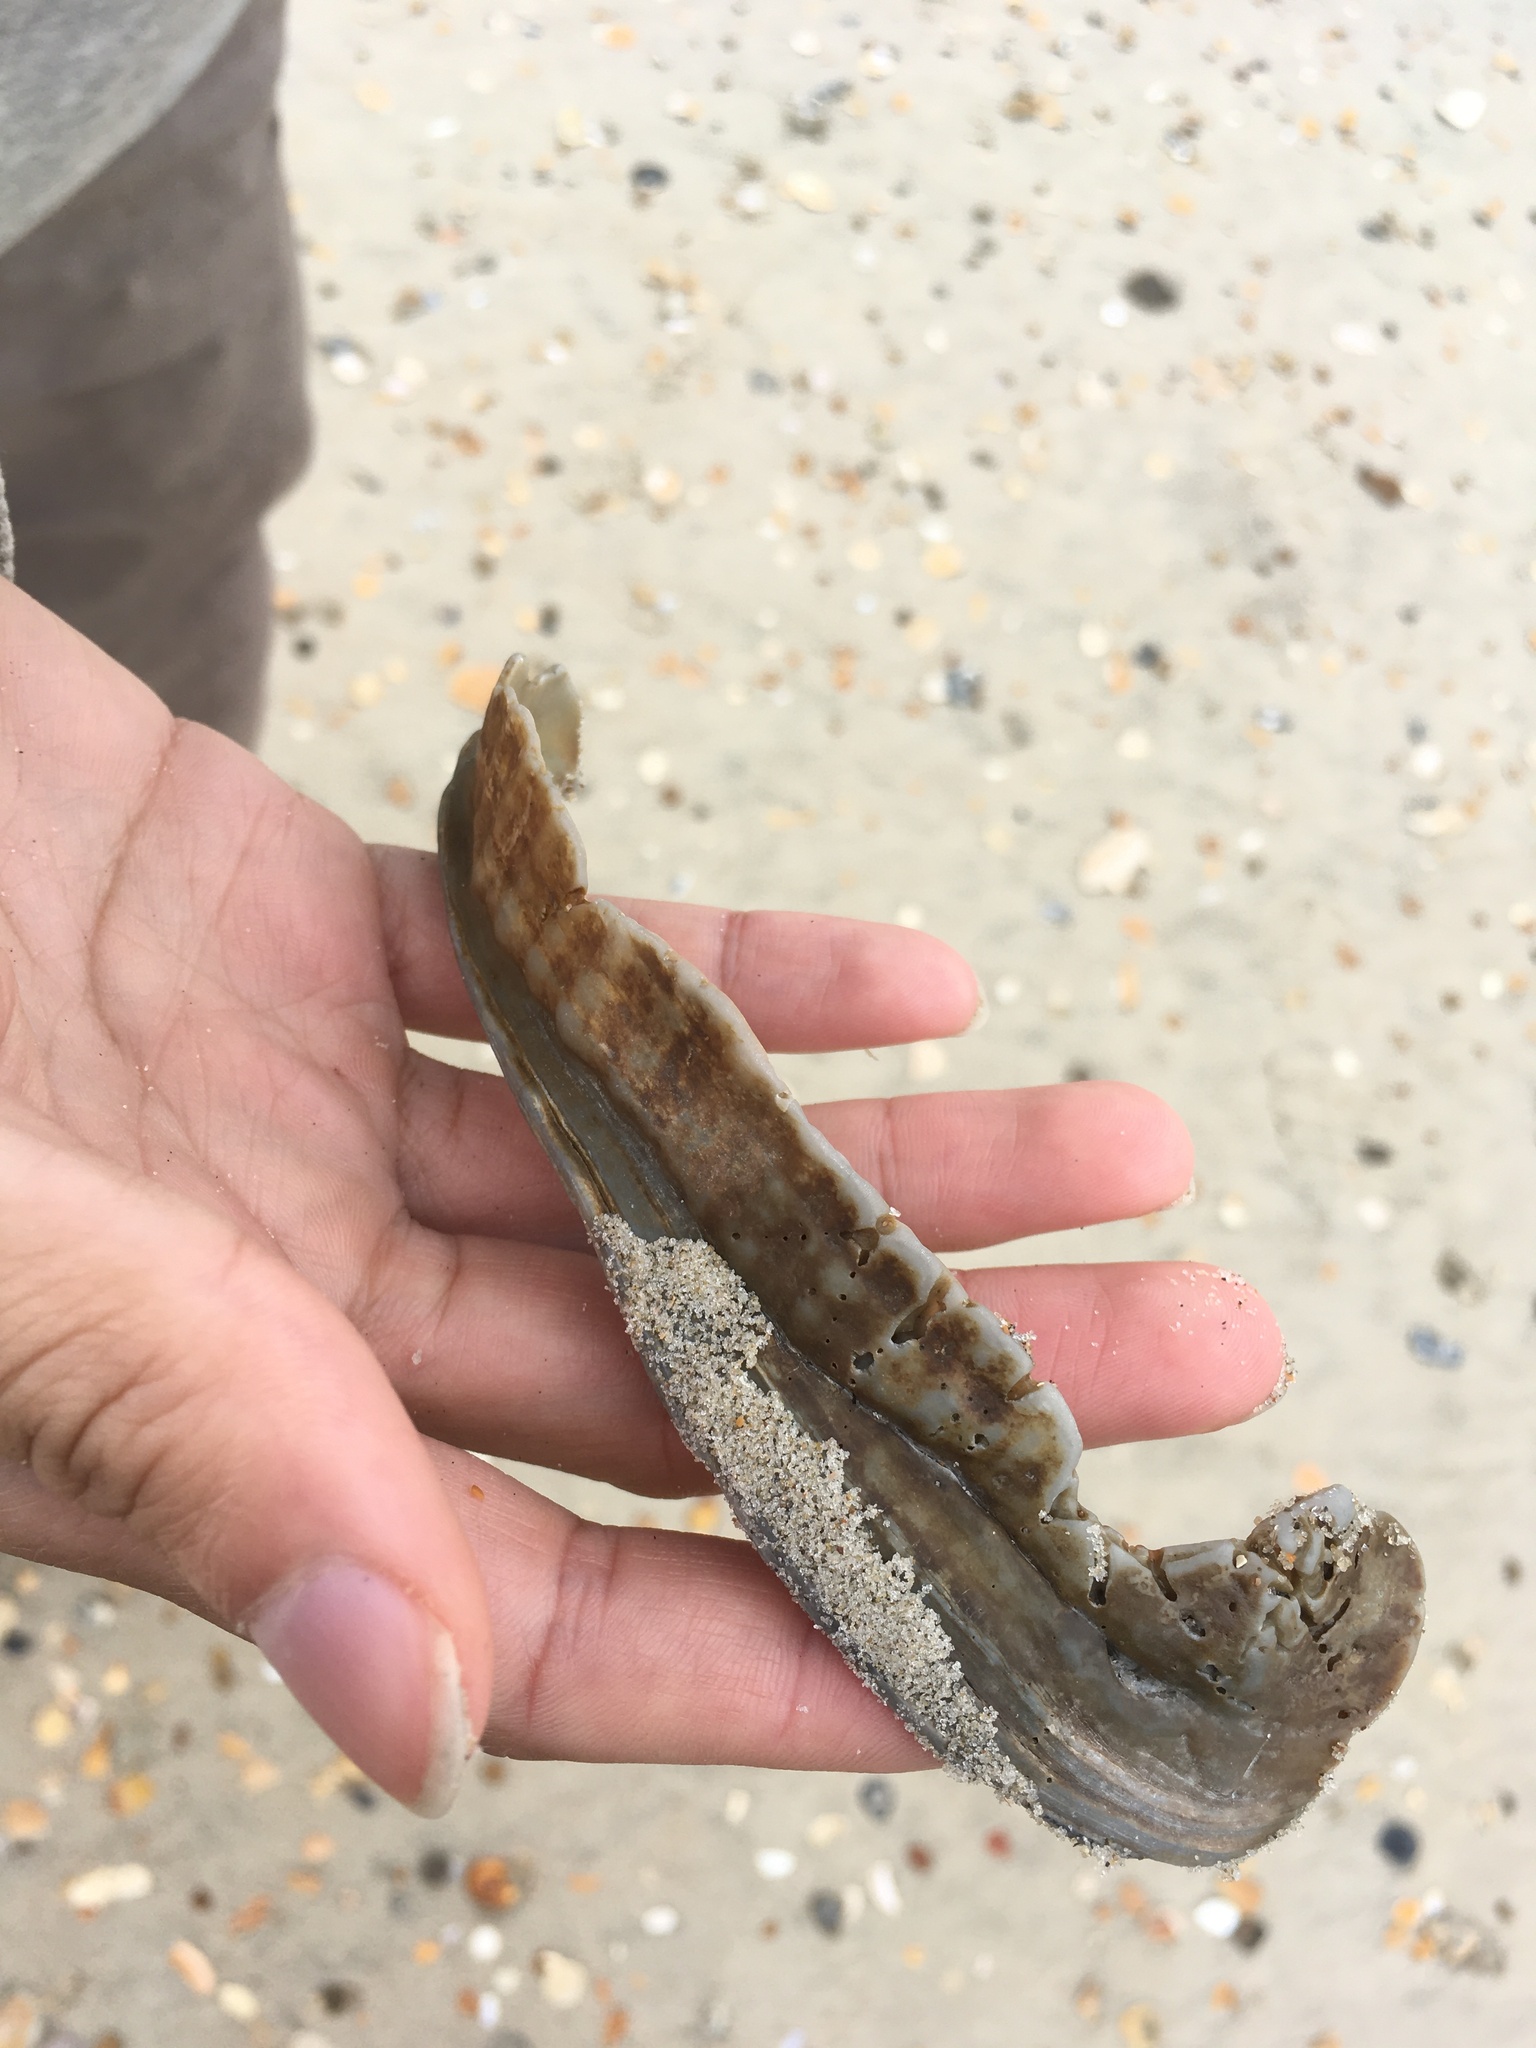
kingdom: Animalia
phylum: Mollusca
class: Gastropoda
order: Littorinimorpha
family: Cassidae
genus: Cassis
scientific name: Cassis madagascariensis
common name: Cameo helmet
